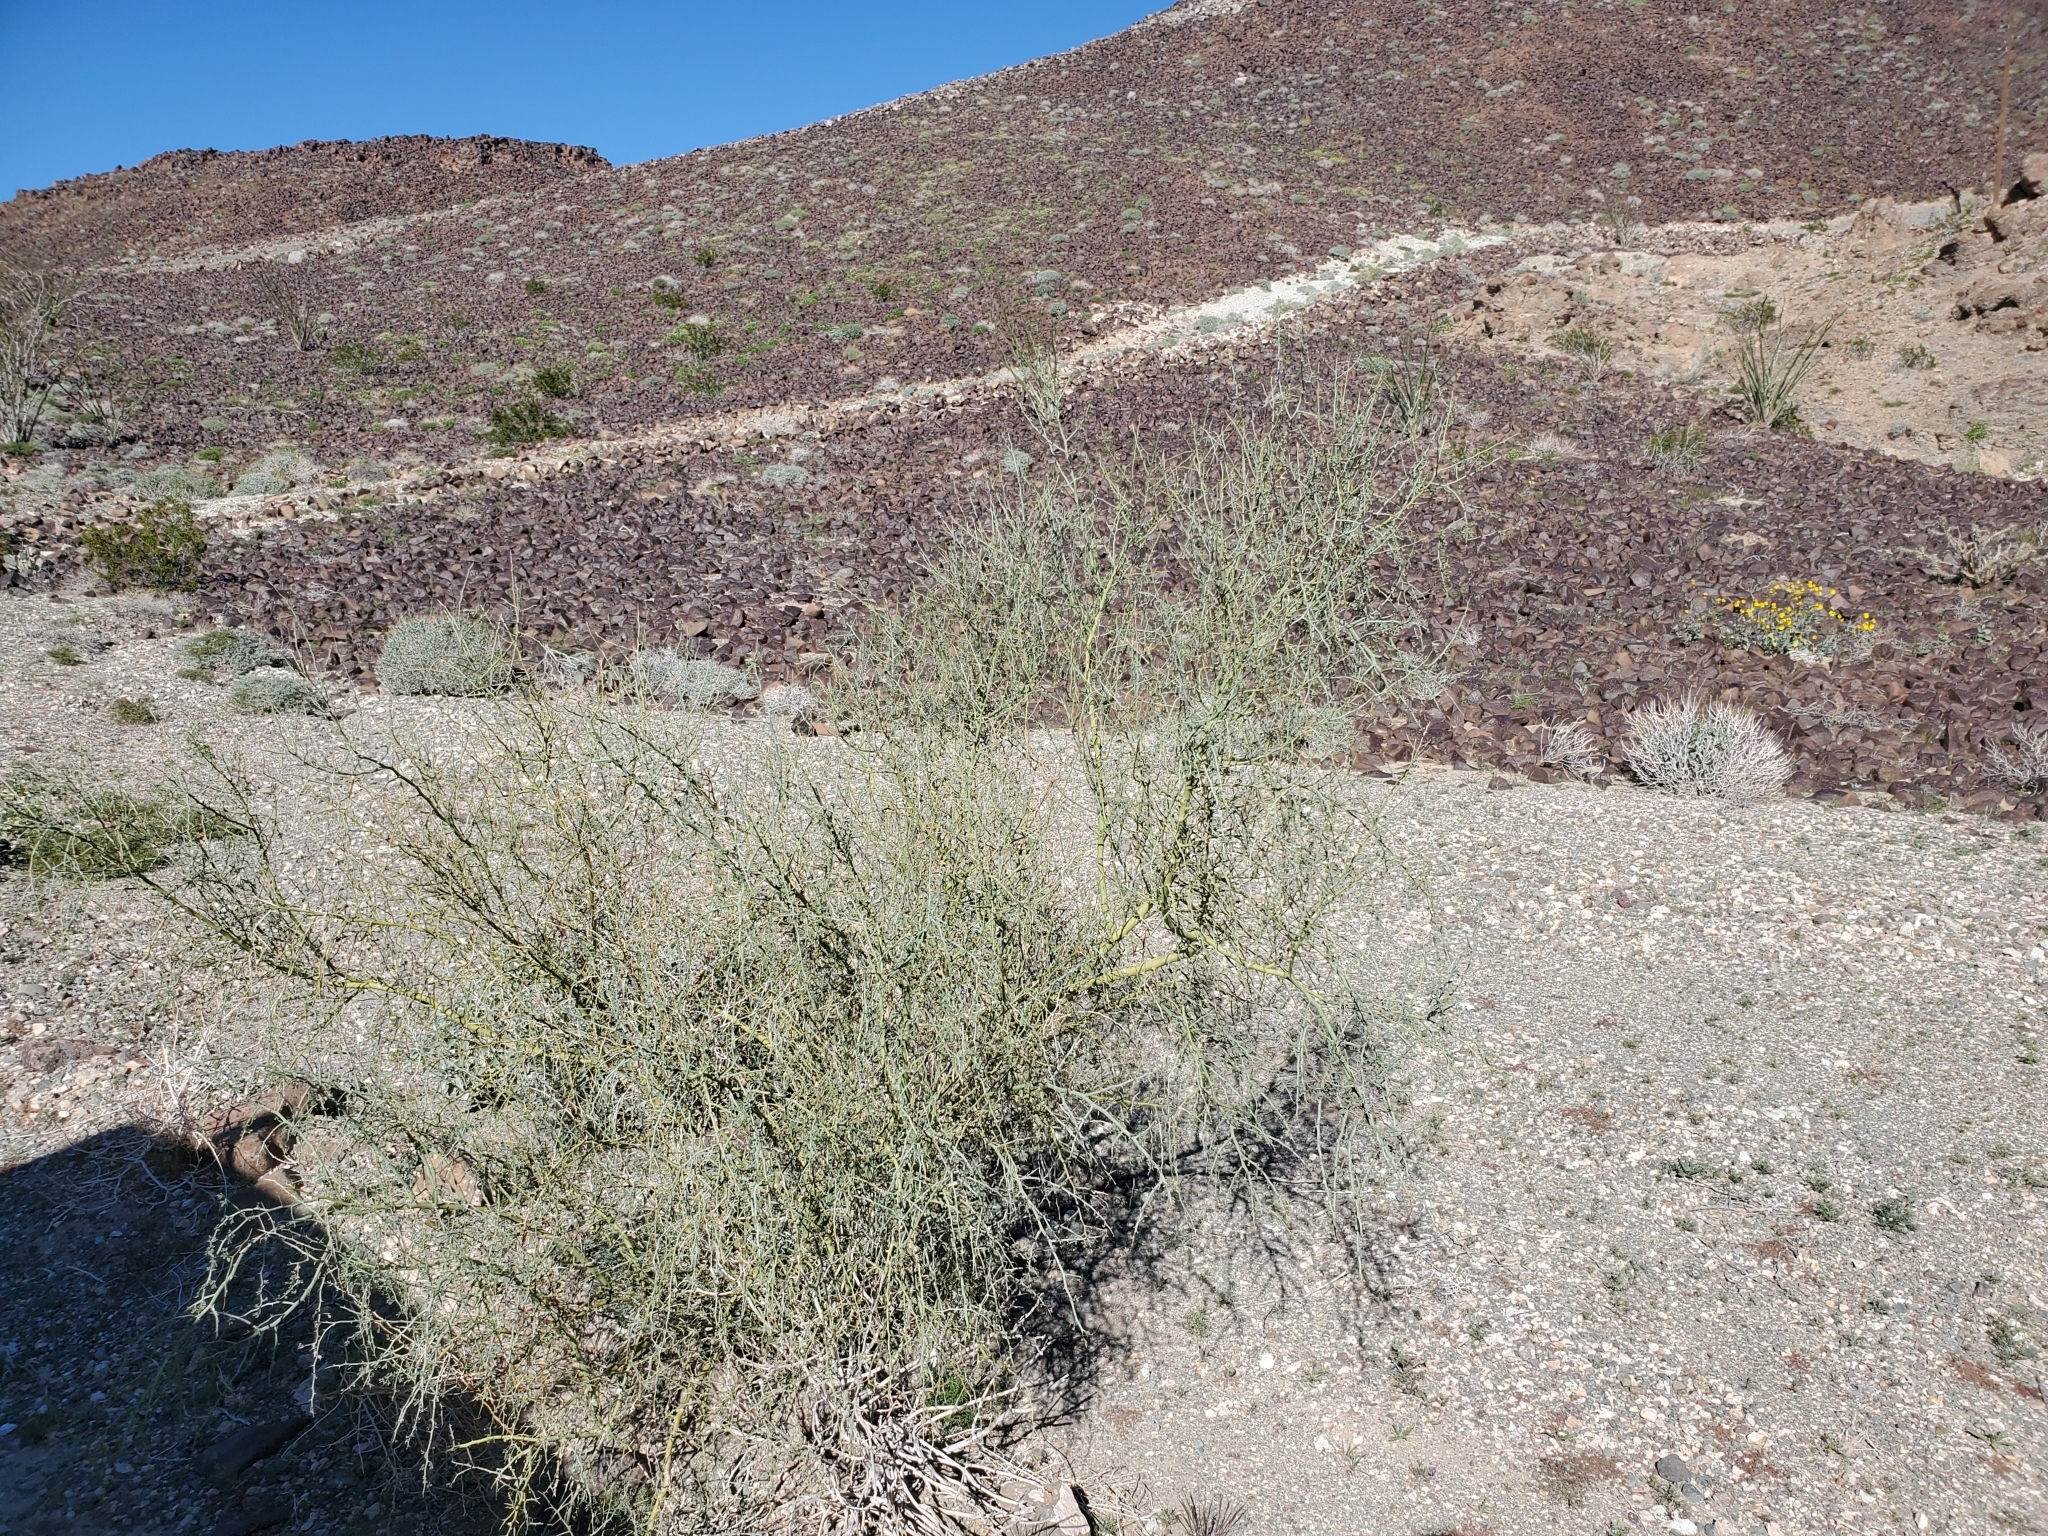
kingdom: Plantae
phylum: Tracheophyta
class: Magnoliopsida
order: Fabales
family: Fabaceae
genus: Parkinsonia
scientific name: Parkinsonia florida
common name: Blue paloverde
